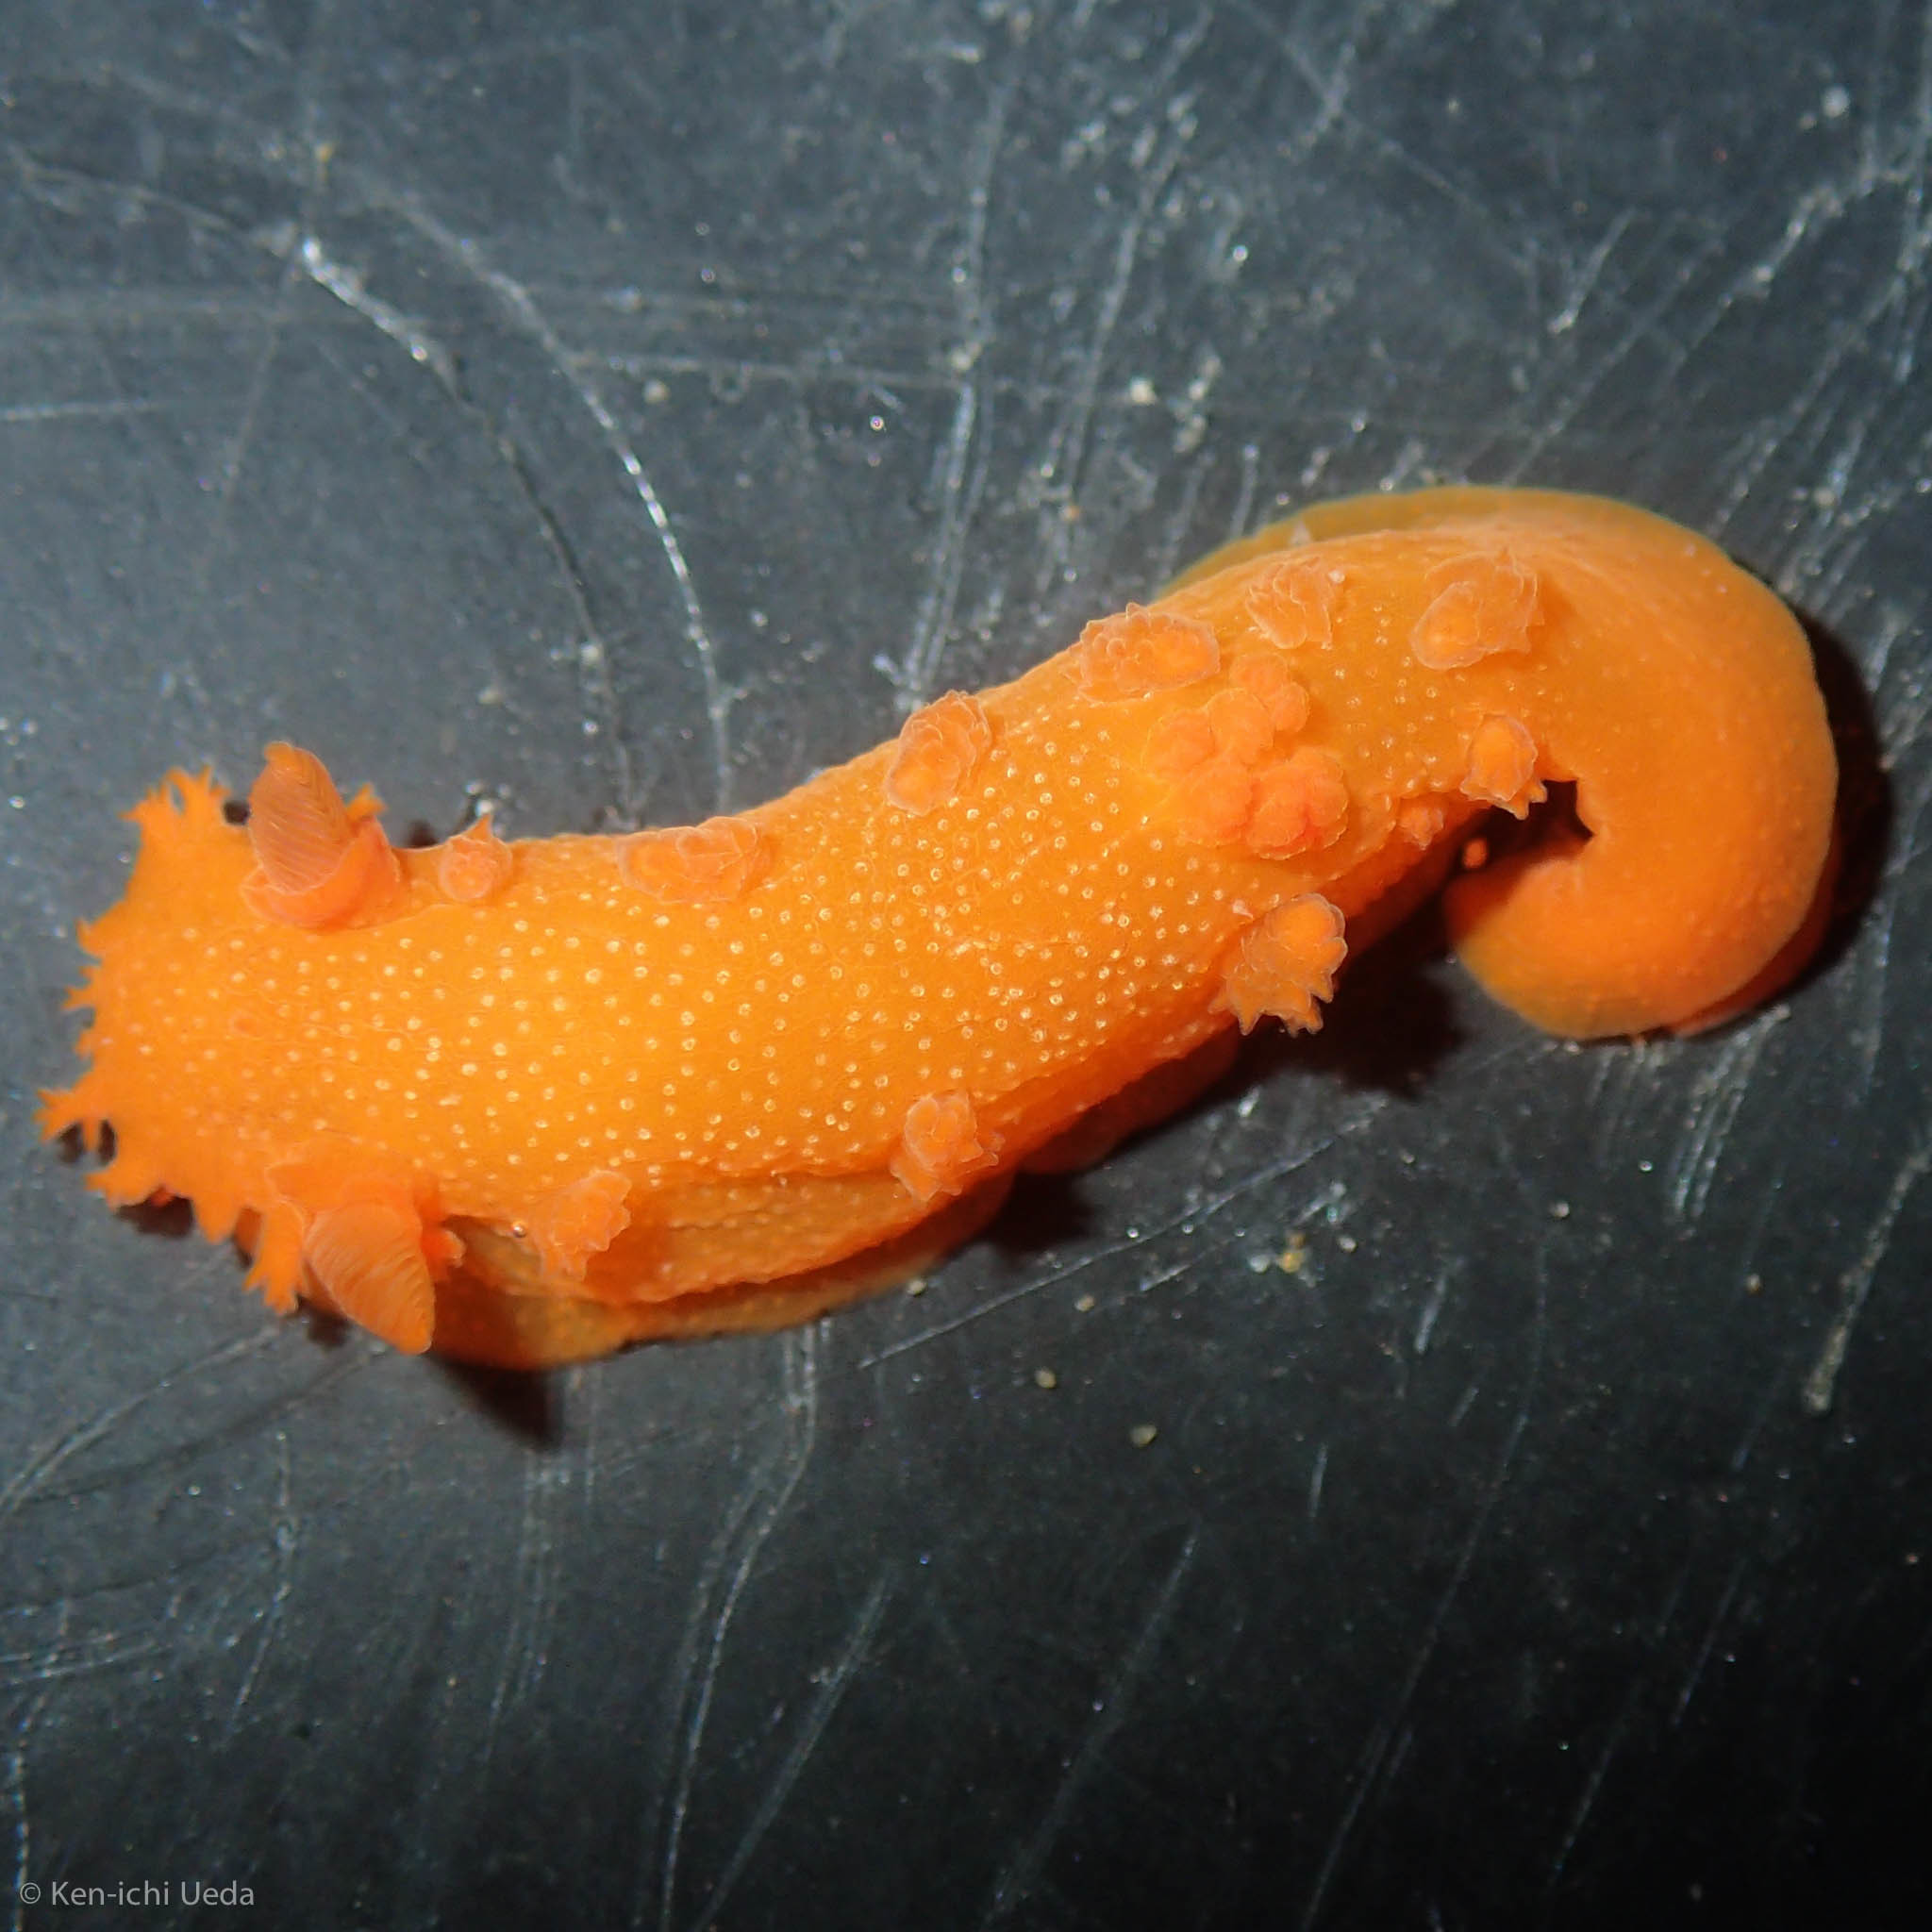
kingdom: Animalia
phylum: Mollusca
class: Gastropoda
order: Nudibranchia
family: Polyceridae
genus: Triopha
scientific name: Triopha maculata
